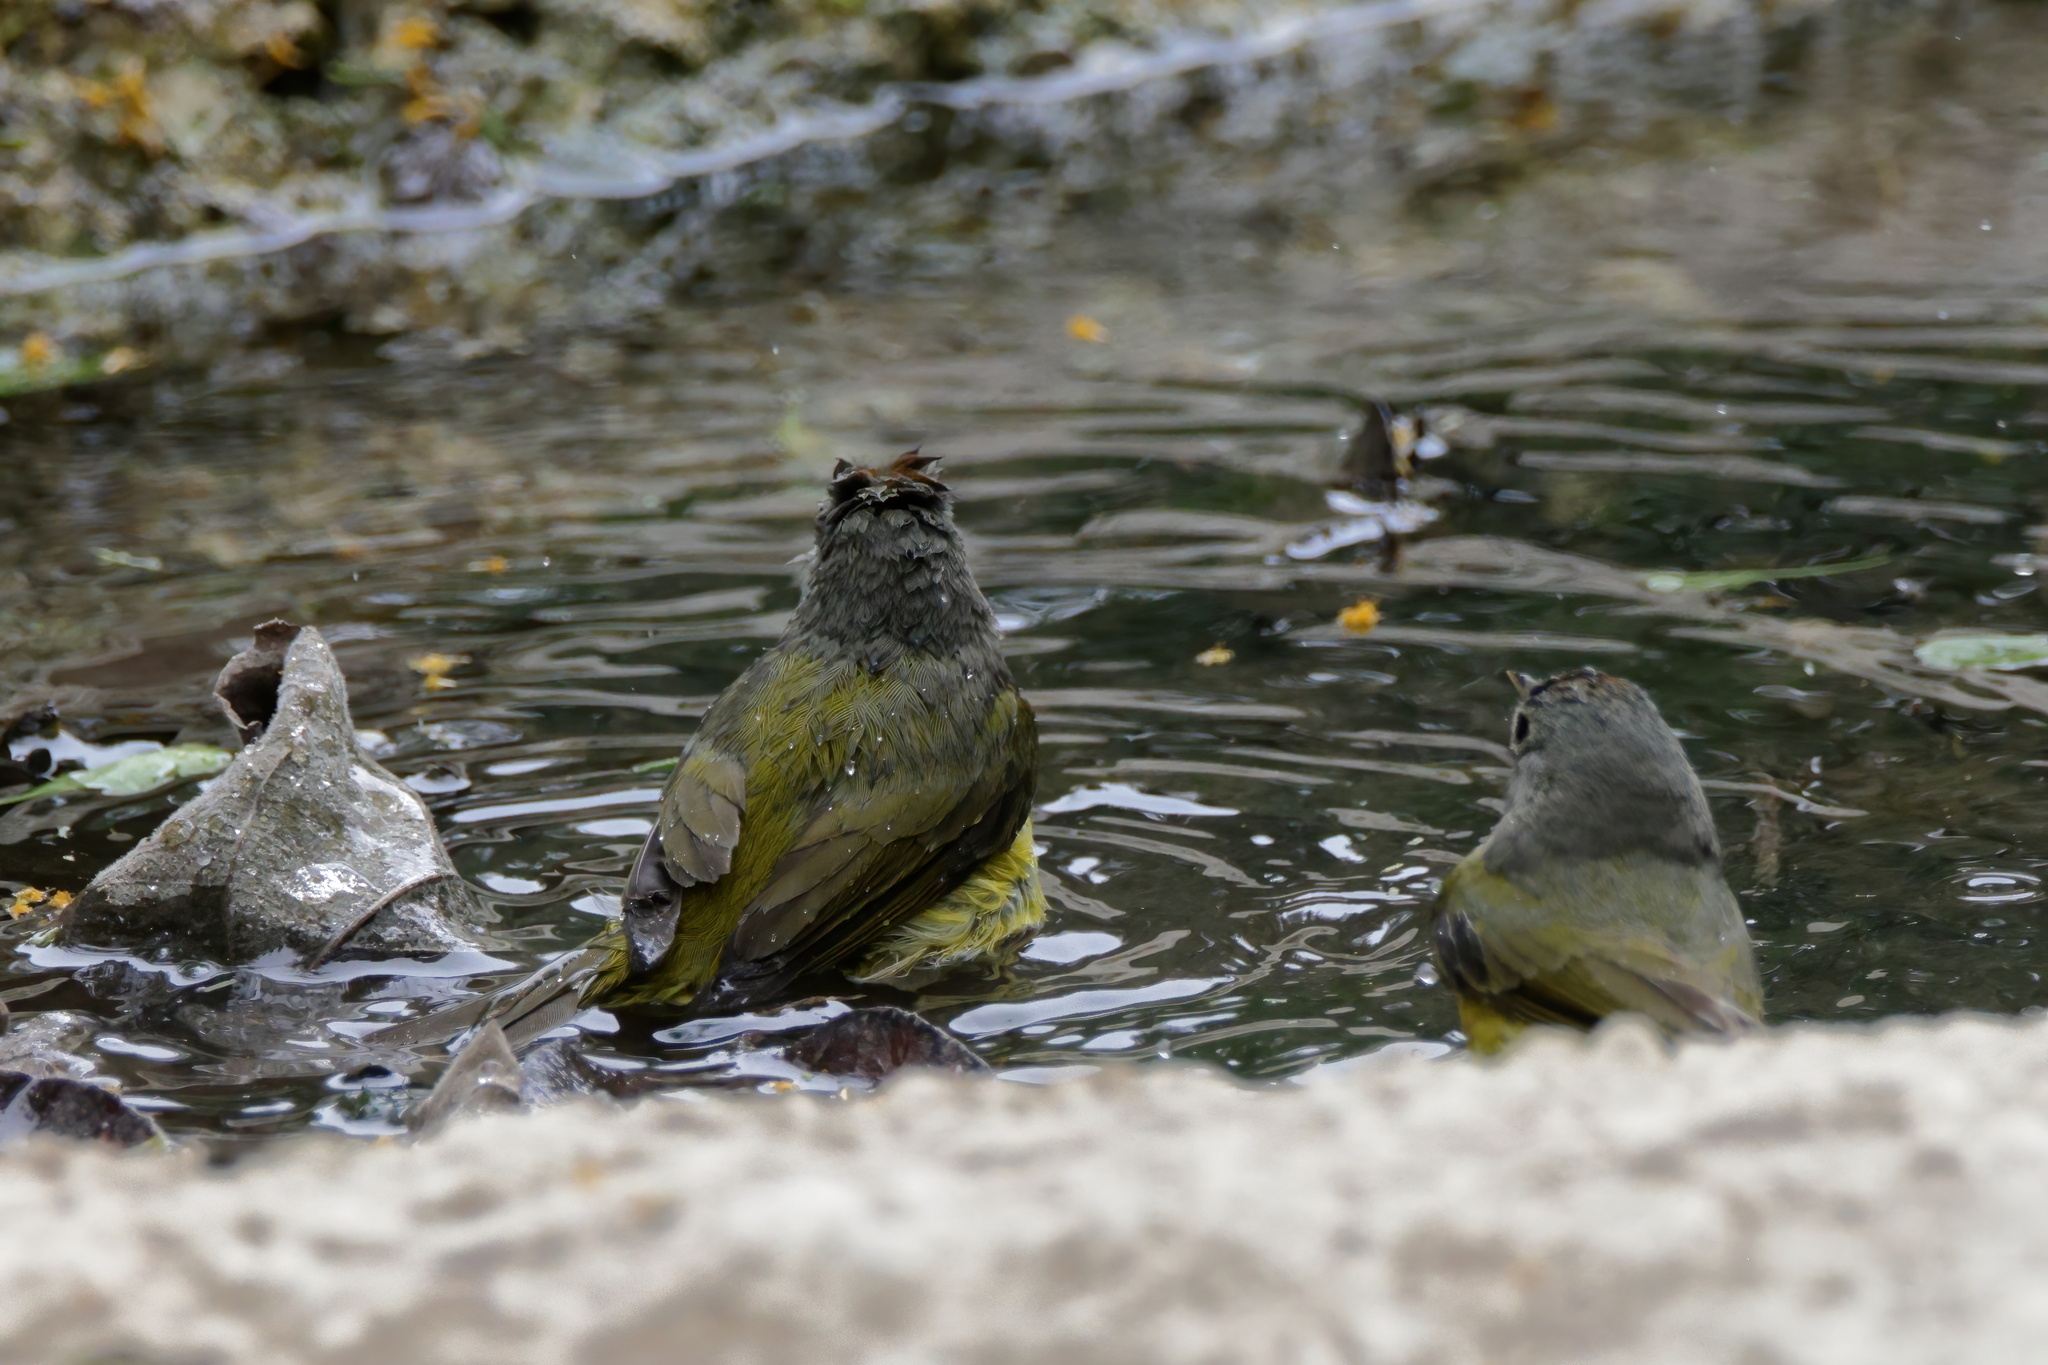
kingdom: Animalia
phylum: Chordata
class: Aves
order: Passeriformes
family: Parulidae
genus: Leiothlypis
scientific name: Leiothlypis celata
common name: Orange-crowned warbler
